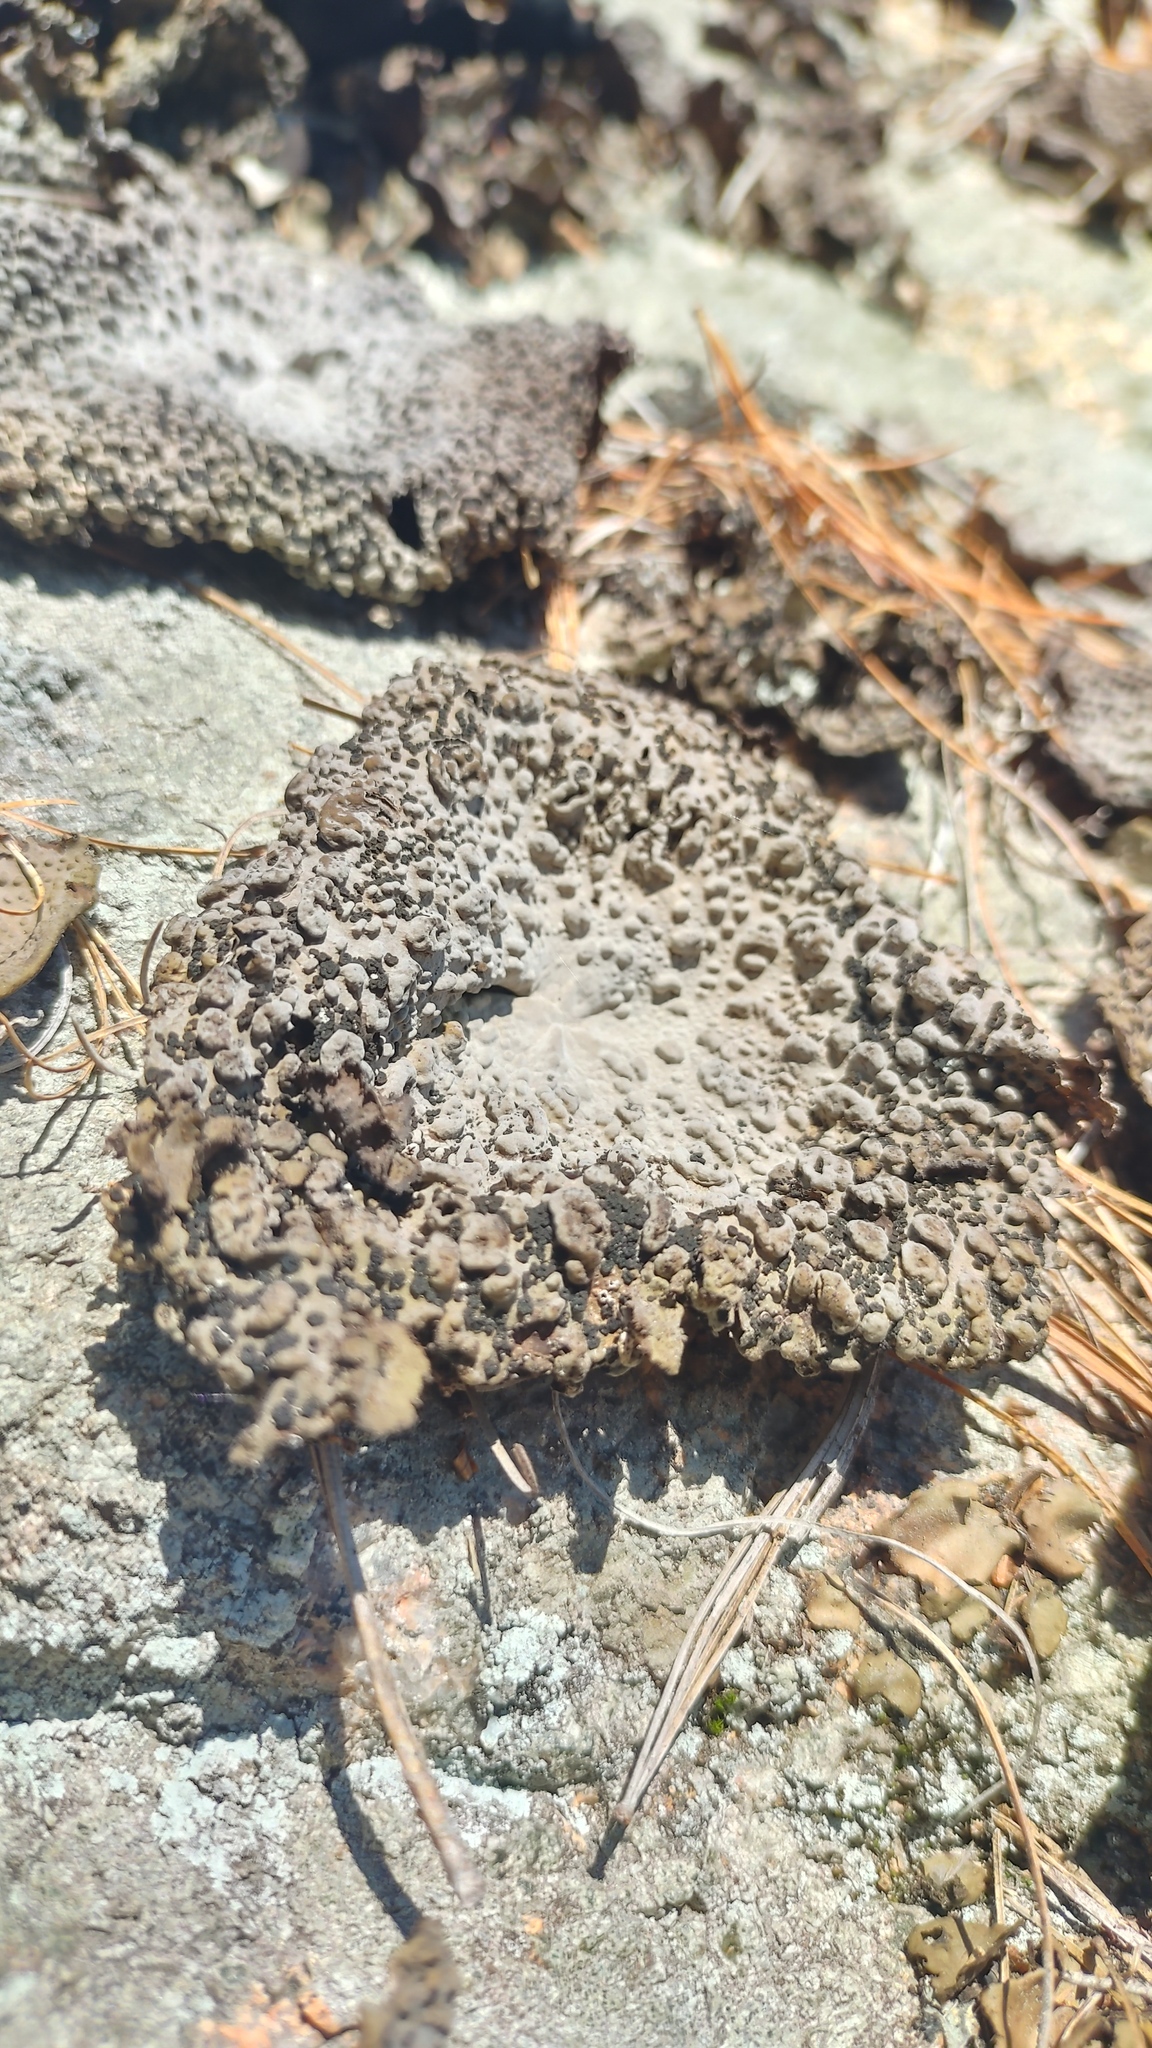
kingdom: Fungi
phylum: Ascomycota
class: Lecanoromycetes
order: Umbilicariales
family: Umbilicariaceae
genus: Lasallia
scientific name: Lasallia papulosa
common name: Common toadskin lichen
